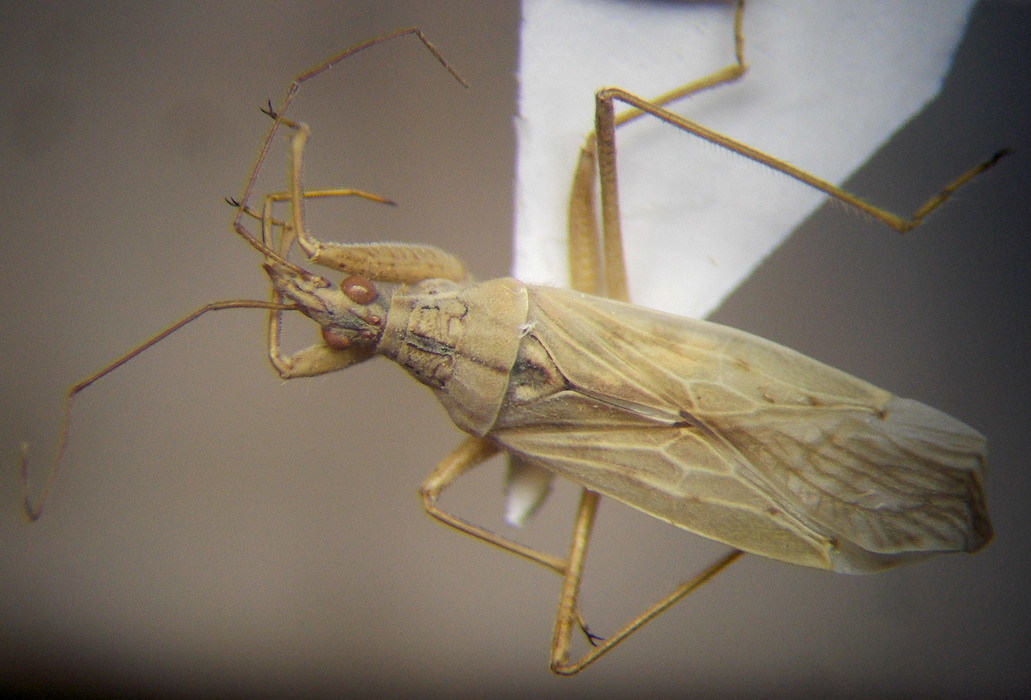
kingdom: Animalia
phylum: Arthropoda
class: Insecta
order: Hemiptera
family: Nabidae
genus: Nabis
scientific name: Nabis ferus
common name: Field damsel bug
